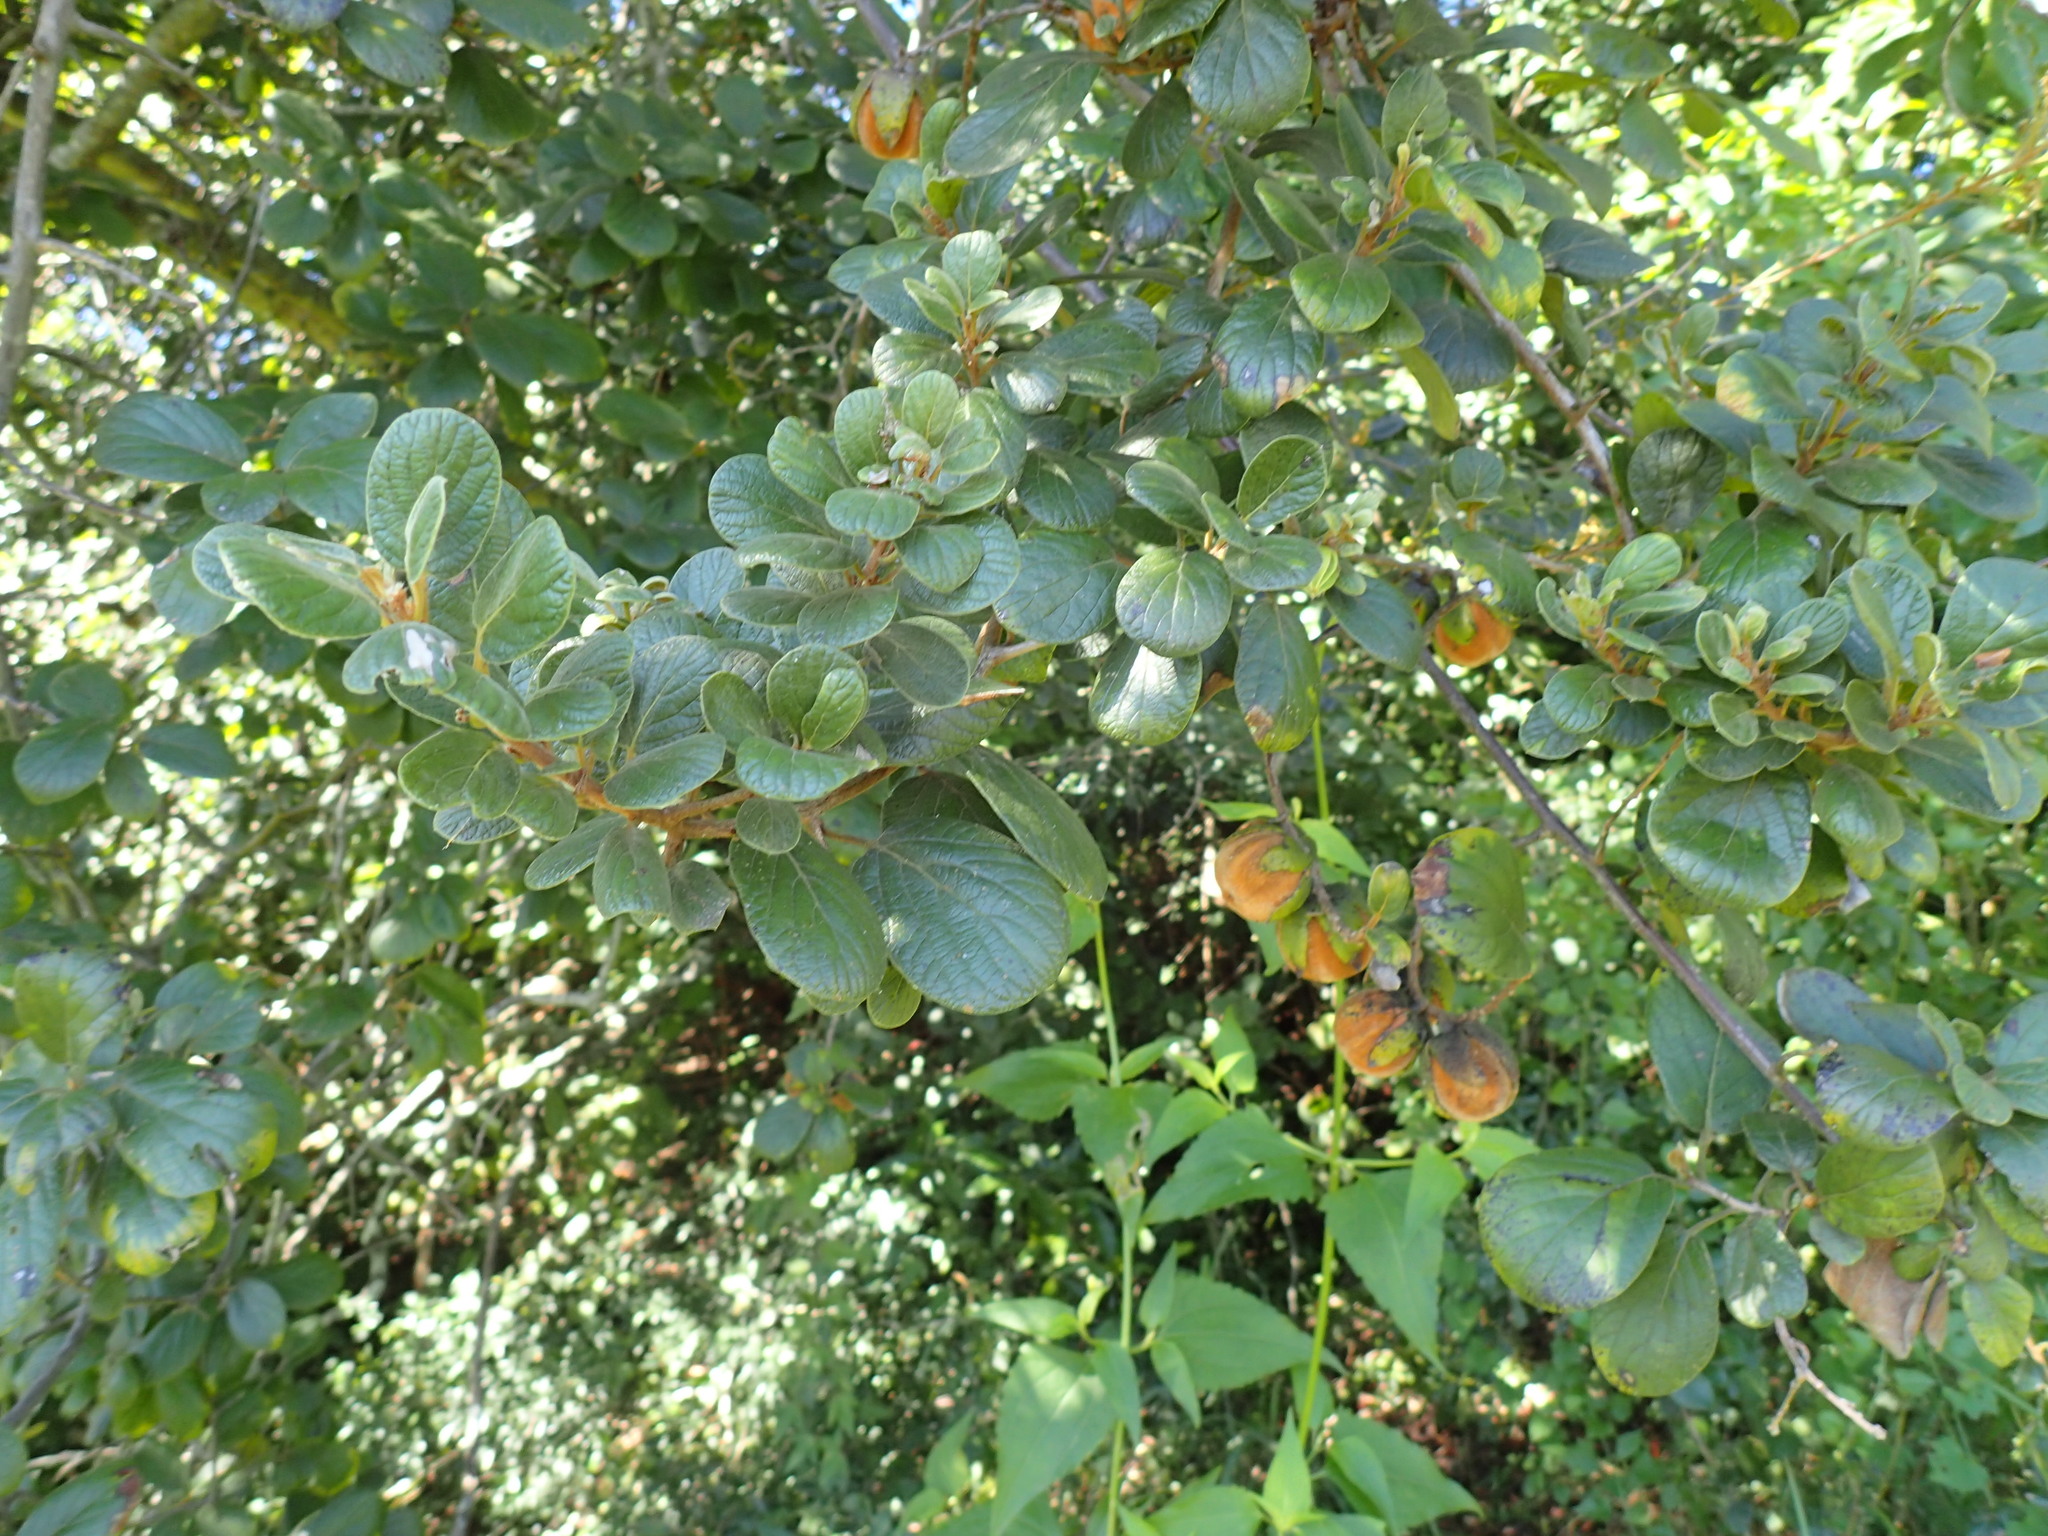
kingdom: Plantae
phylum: Tracheophyta
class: Magnoliopsida
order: Ericales
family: Ebenaceae
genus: Diospyros
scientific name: Diospyros villosa
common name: Hairy star-apple
